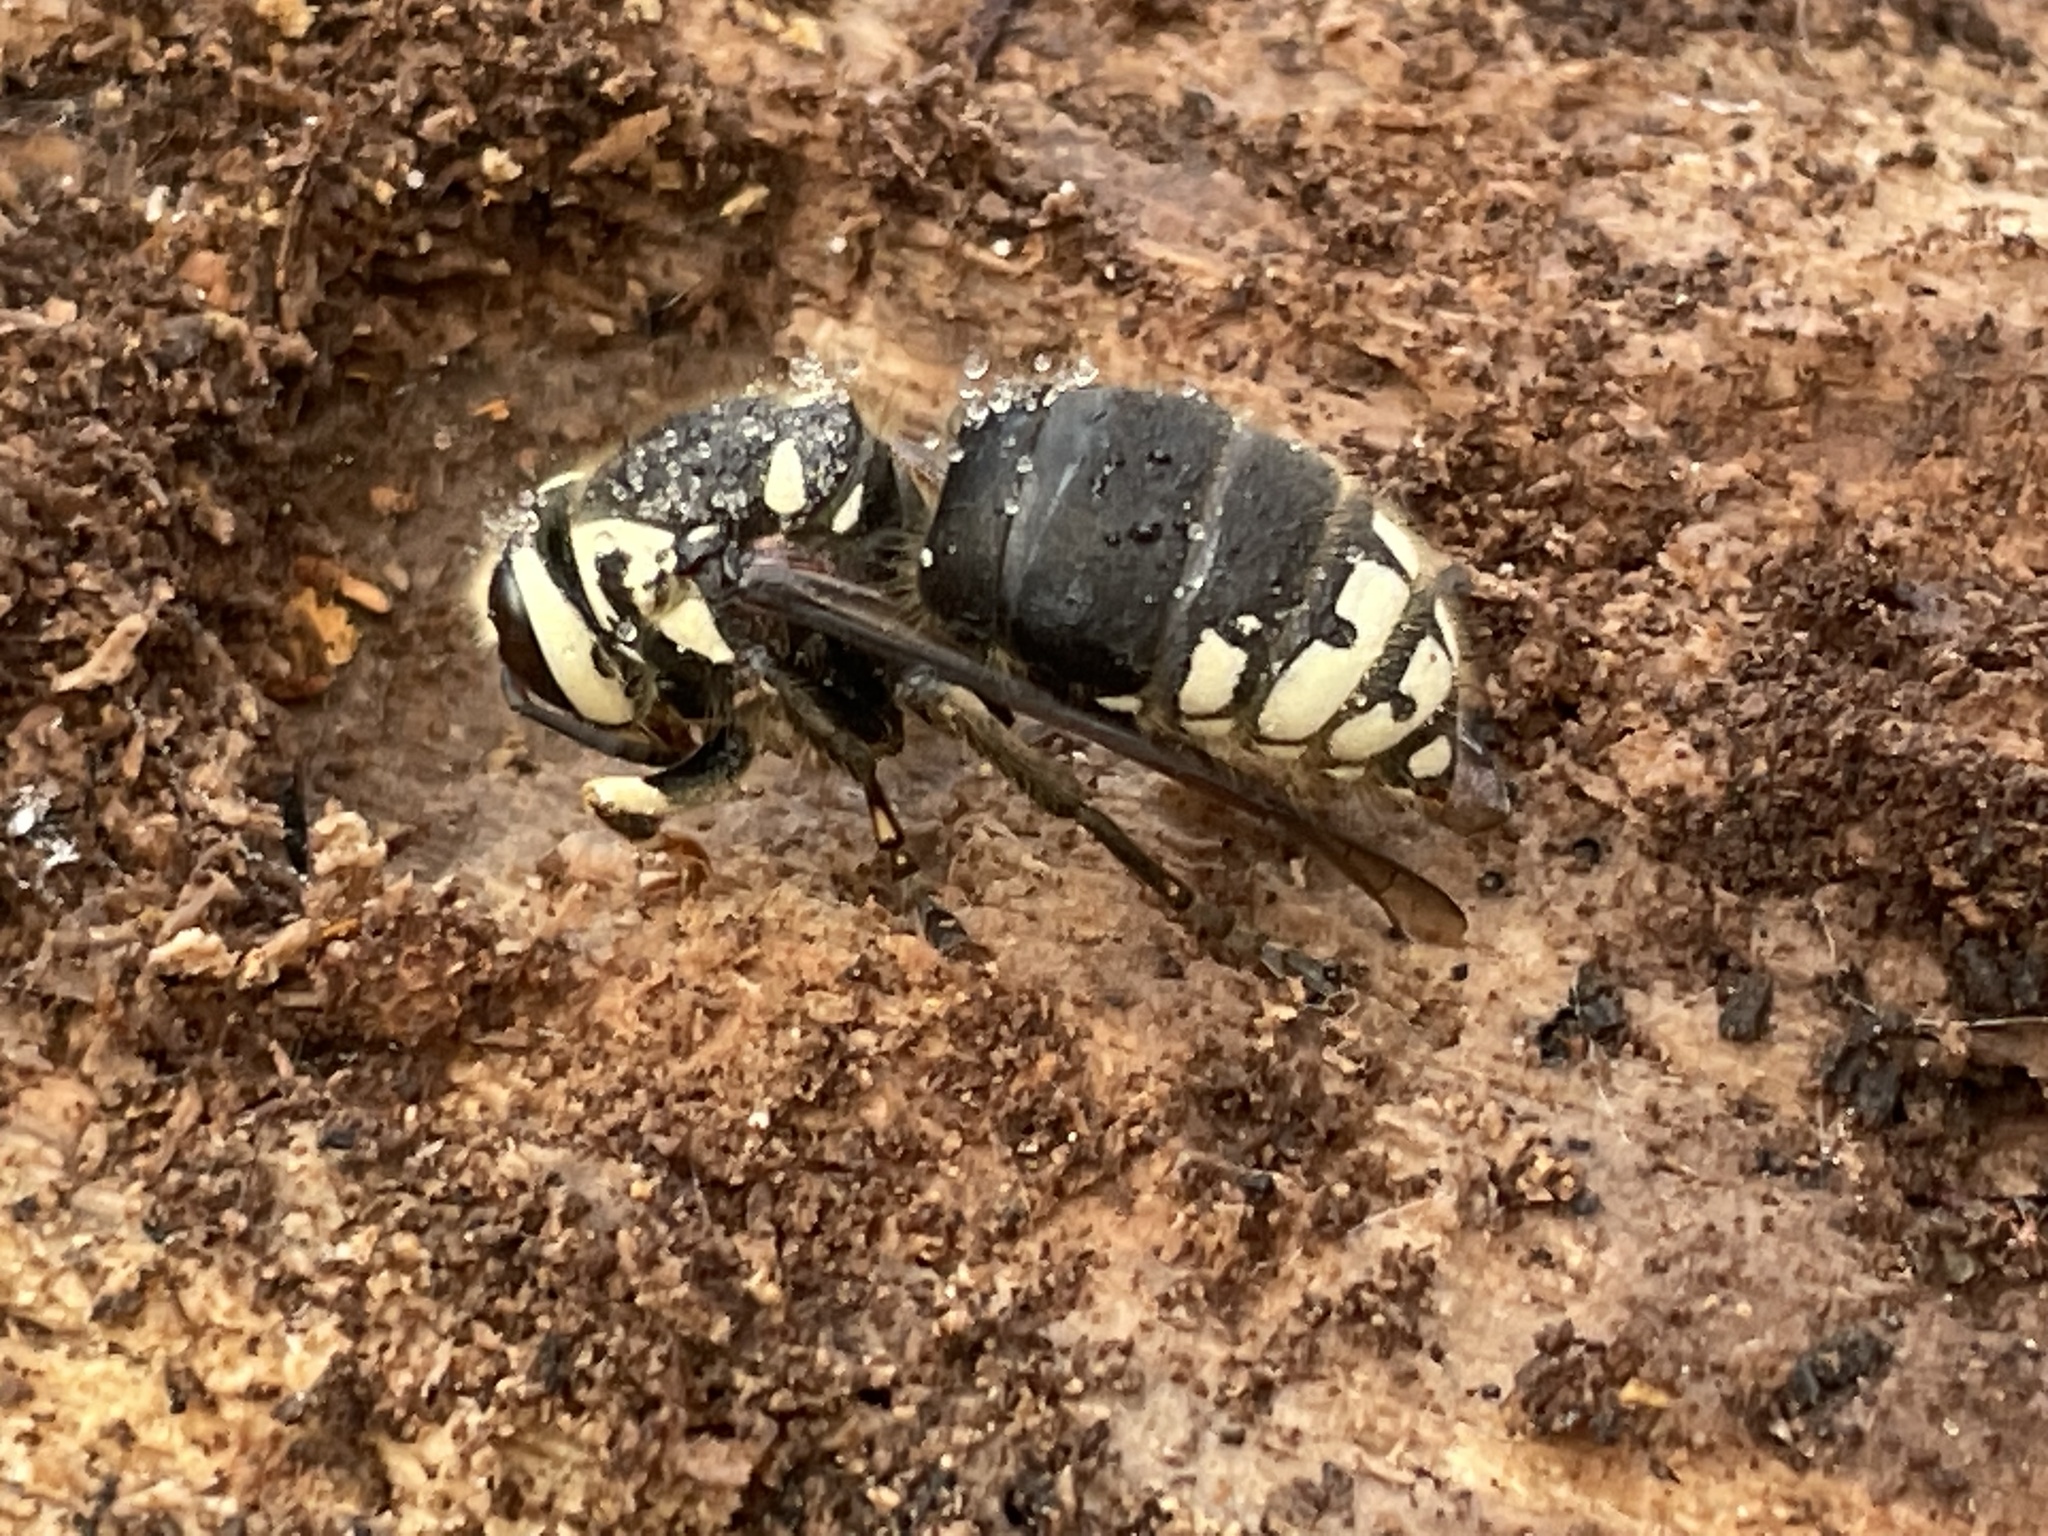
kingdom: Animalia
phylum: Arthropoda
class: Insecta
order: Hymenoptera
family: Vespidae
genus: Dolichovespula
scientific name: Dolichovespula maculata
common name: Bald-faced hornet
